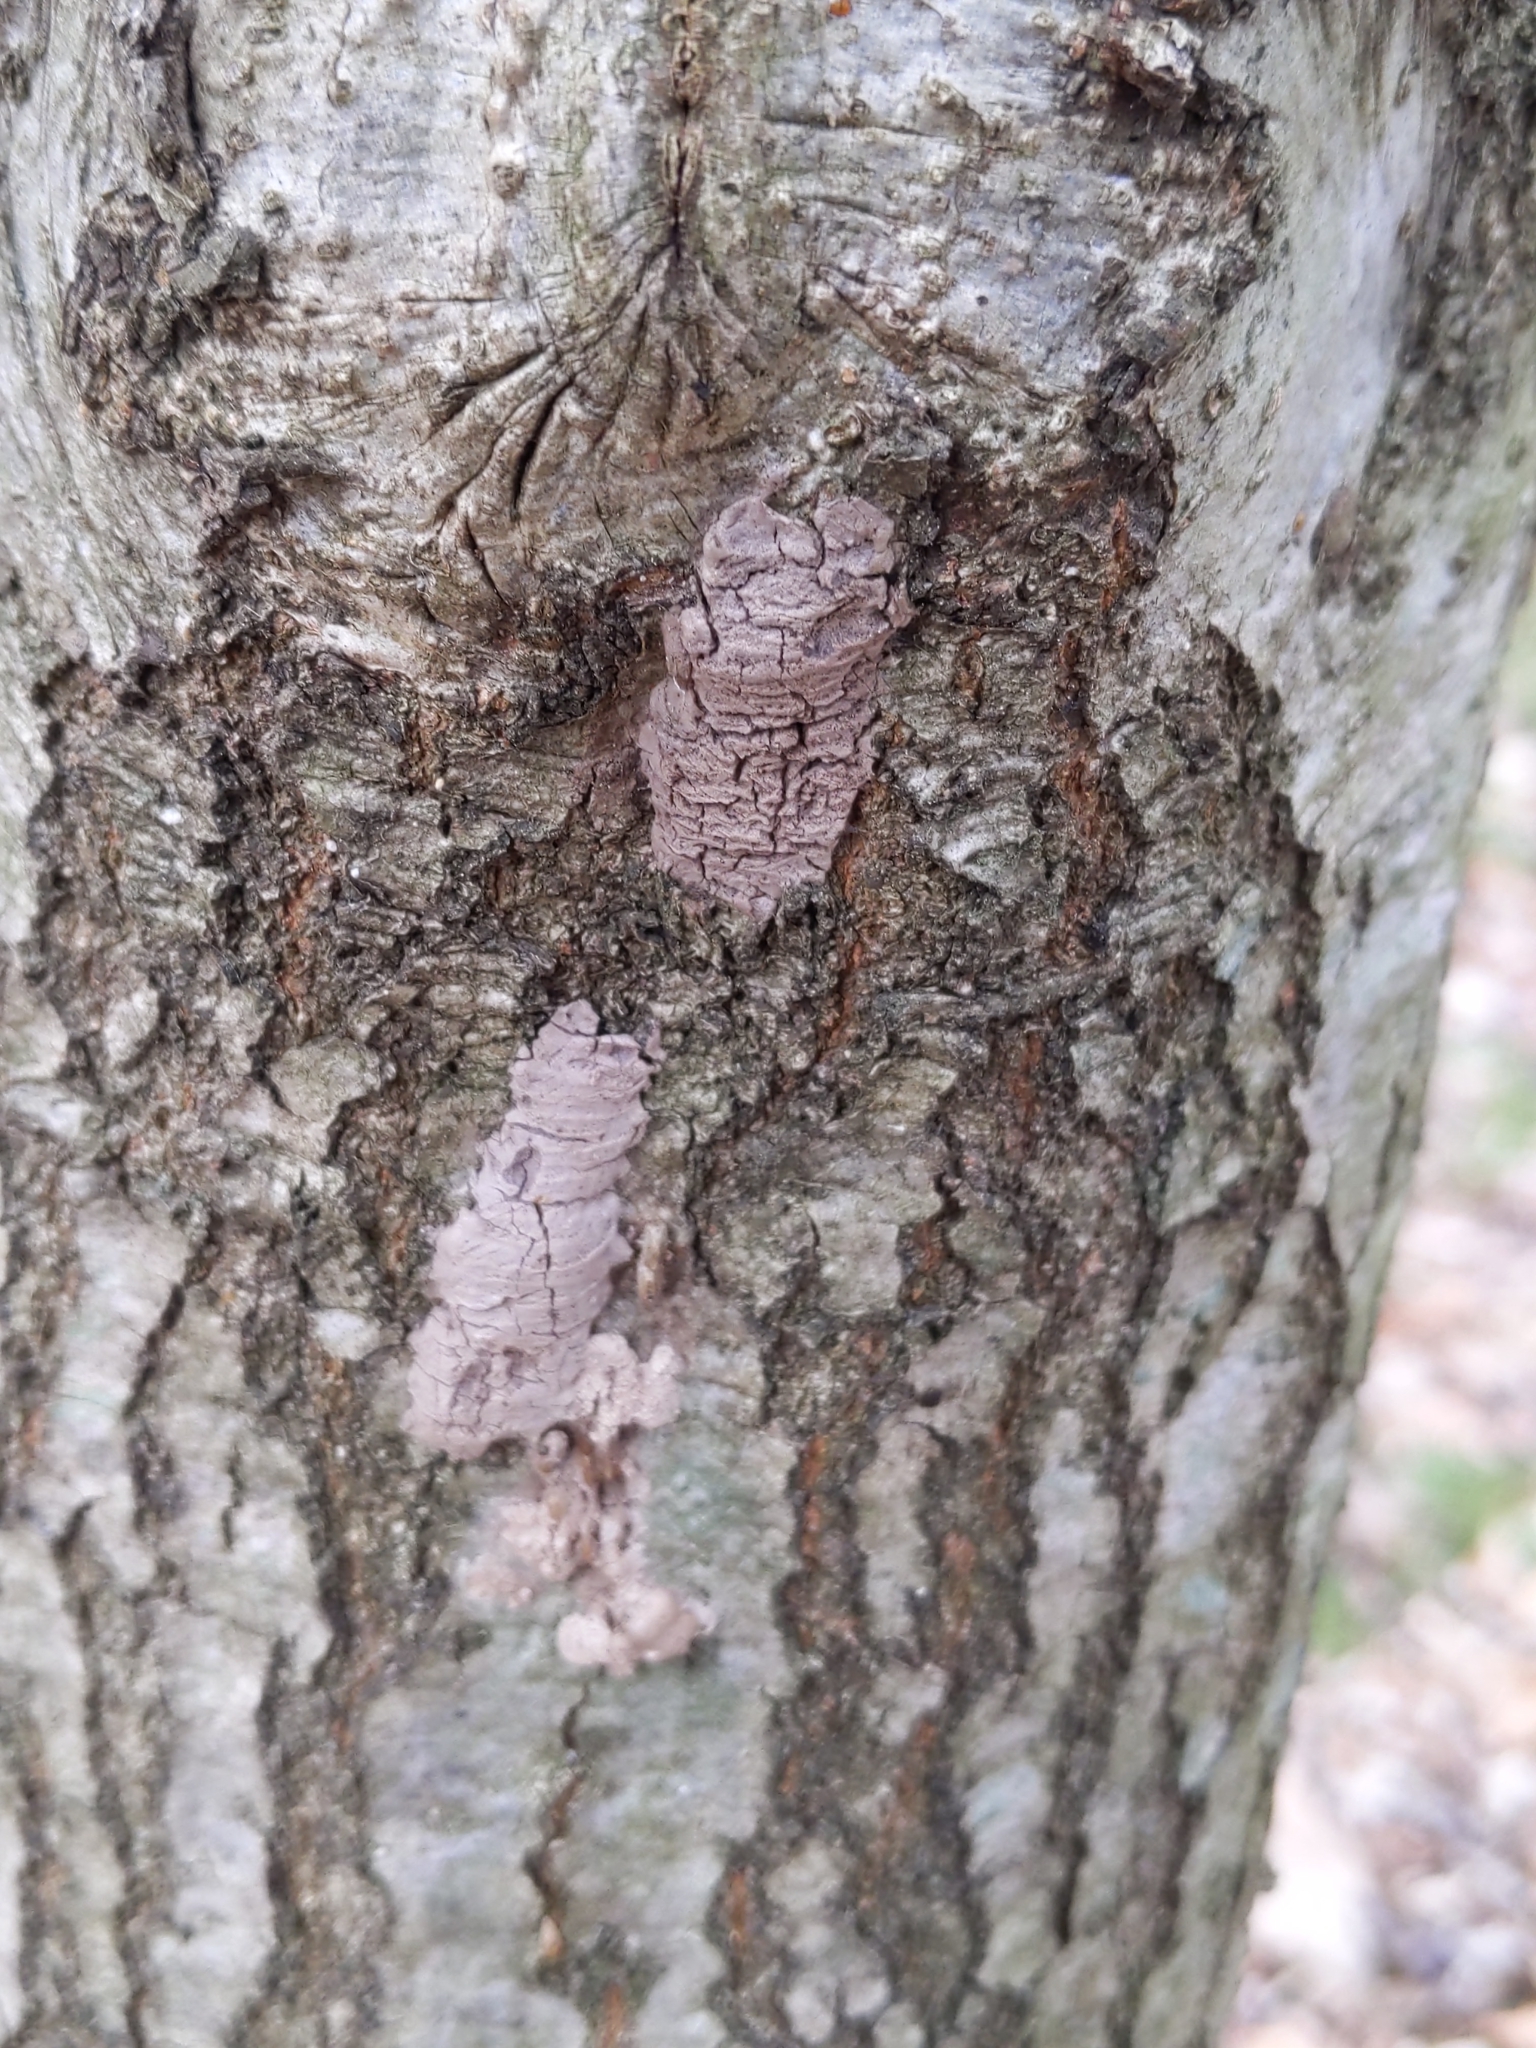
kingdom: Animalia
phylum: Arthropoda
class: Insecta
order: Hemiptera
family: Fulgoridae
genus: Lycorma
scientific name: Lycorma delicatula
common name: Spotted lanternfly
